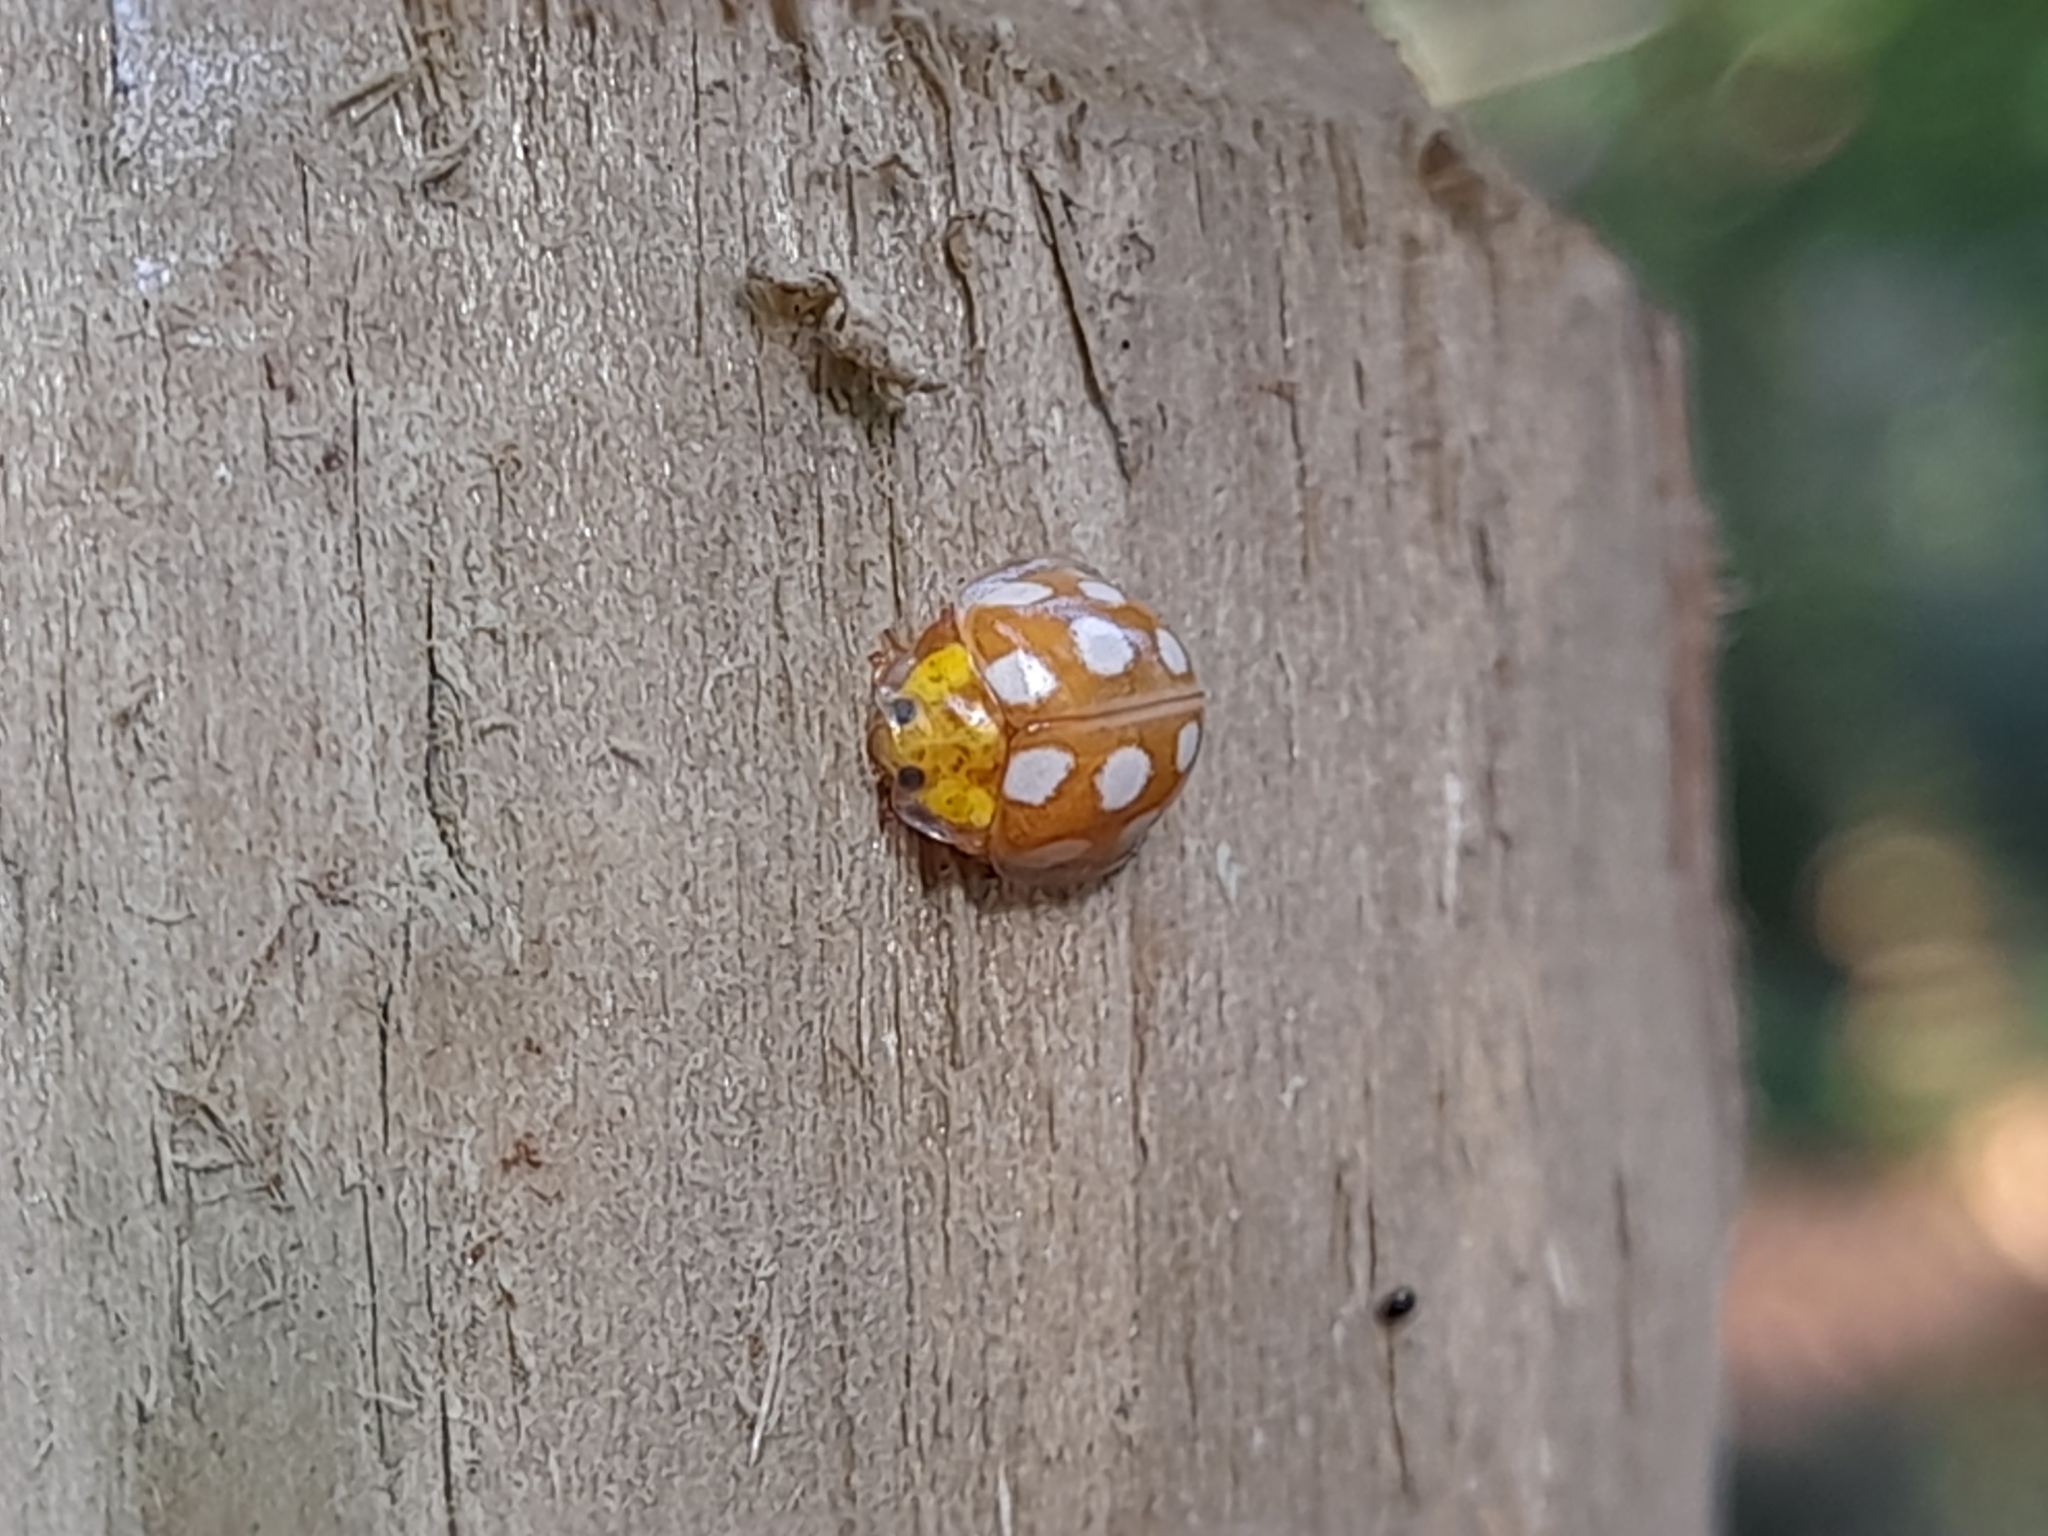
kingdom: Animalia
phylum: Arthropoda
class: Insecta
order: Coleoptera
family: Coccinellidae
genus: Halyzia
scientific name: Halyzia sedecimguttata
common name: Orange ladybird
